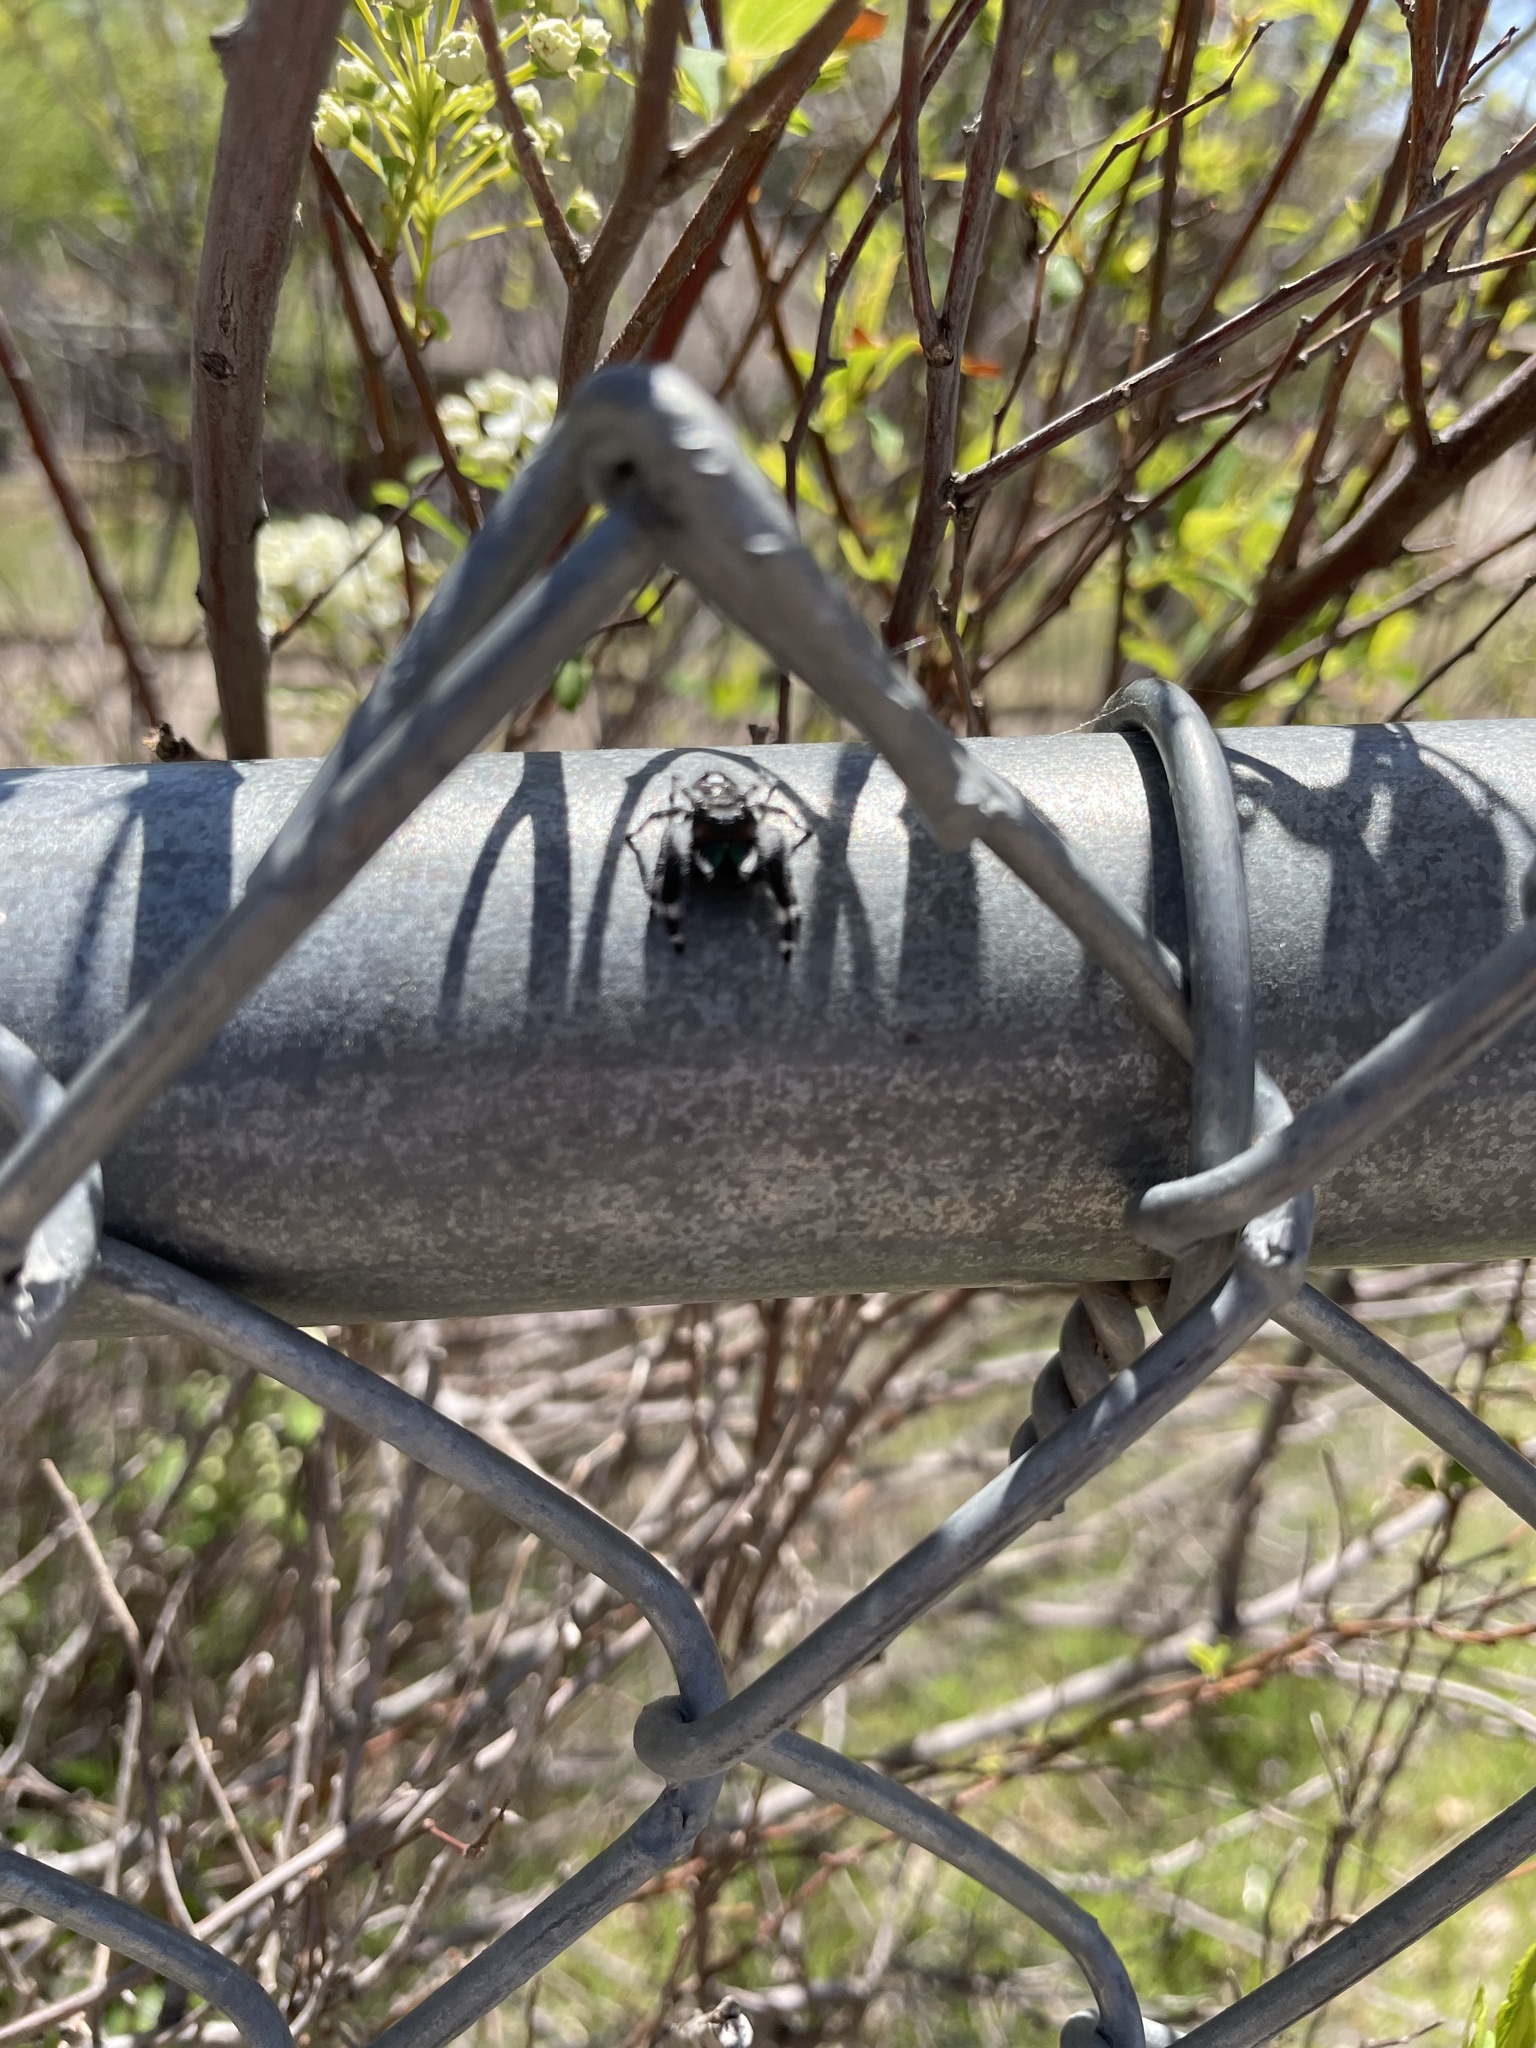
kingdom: Animalia
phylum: Arthropoda
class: Arachnida
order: Araneae
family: Salticidae
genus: Phidippus
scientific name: Phidippus audax
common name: Bold jumper
